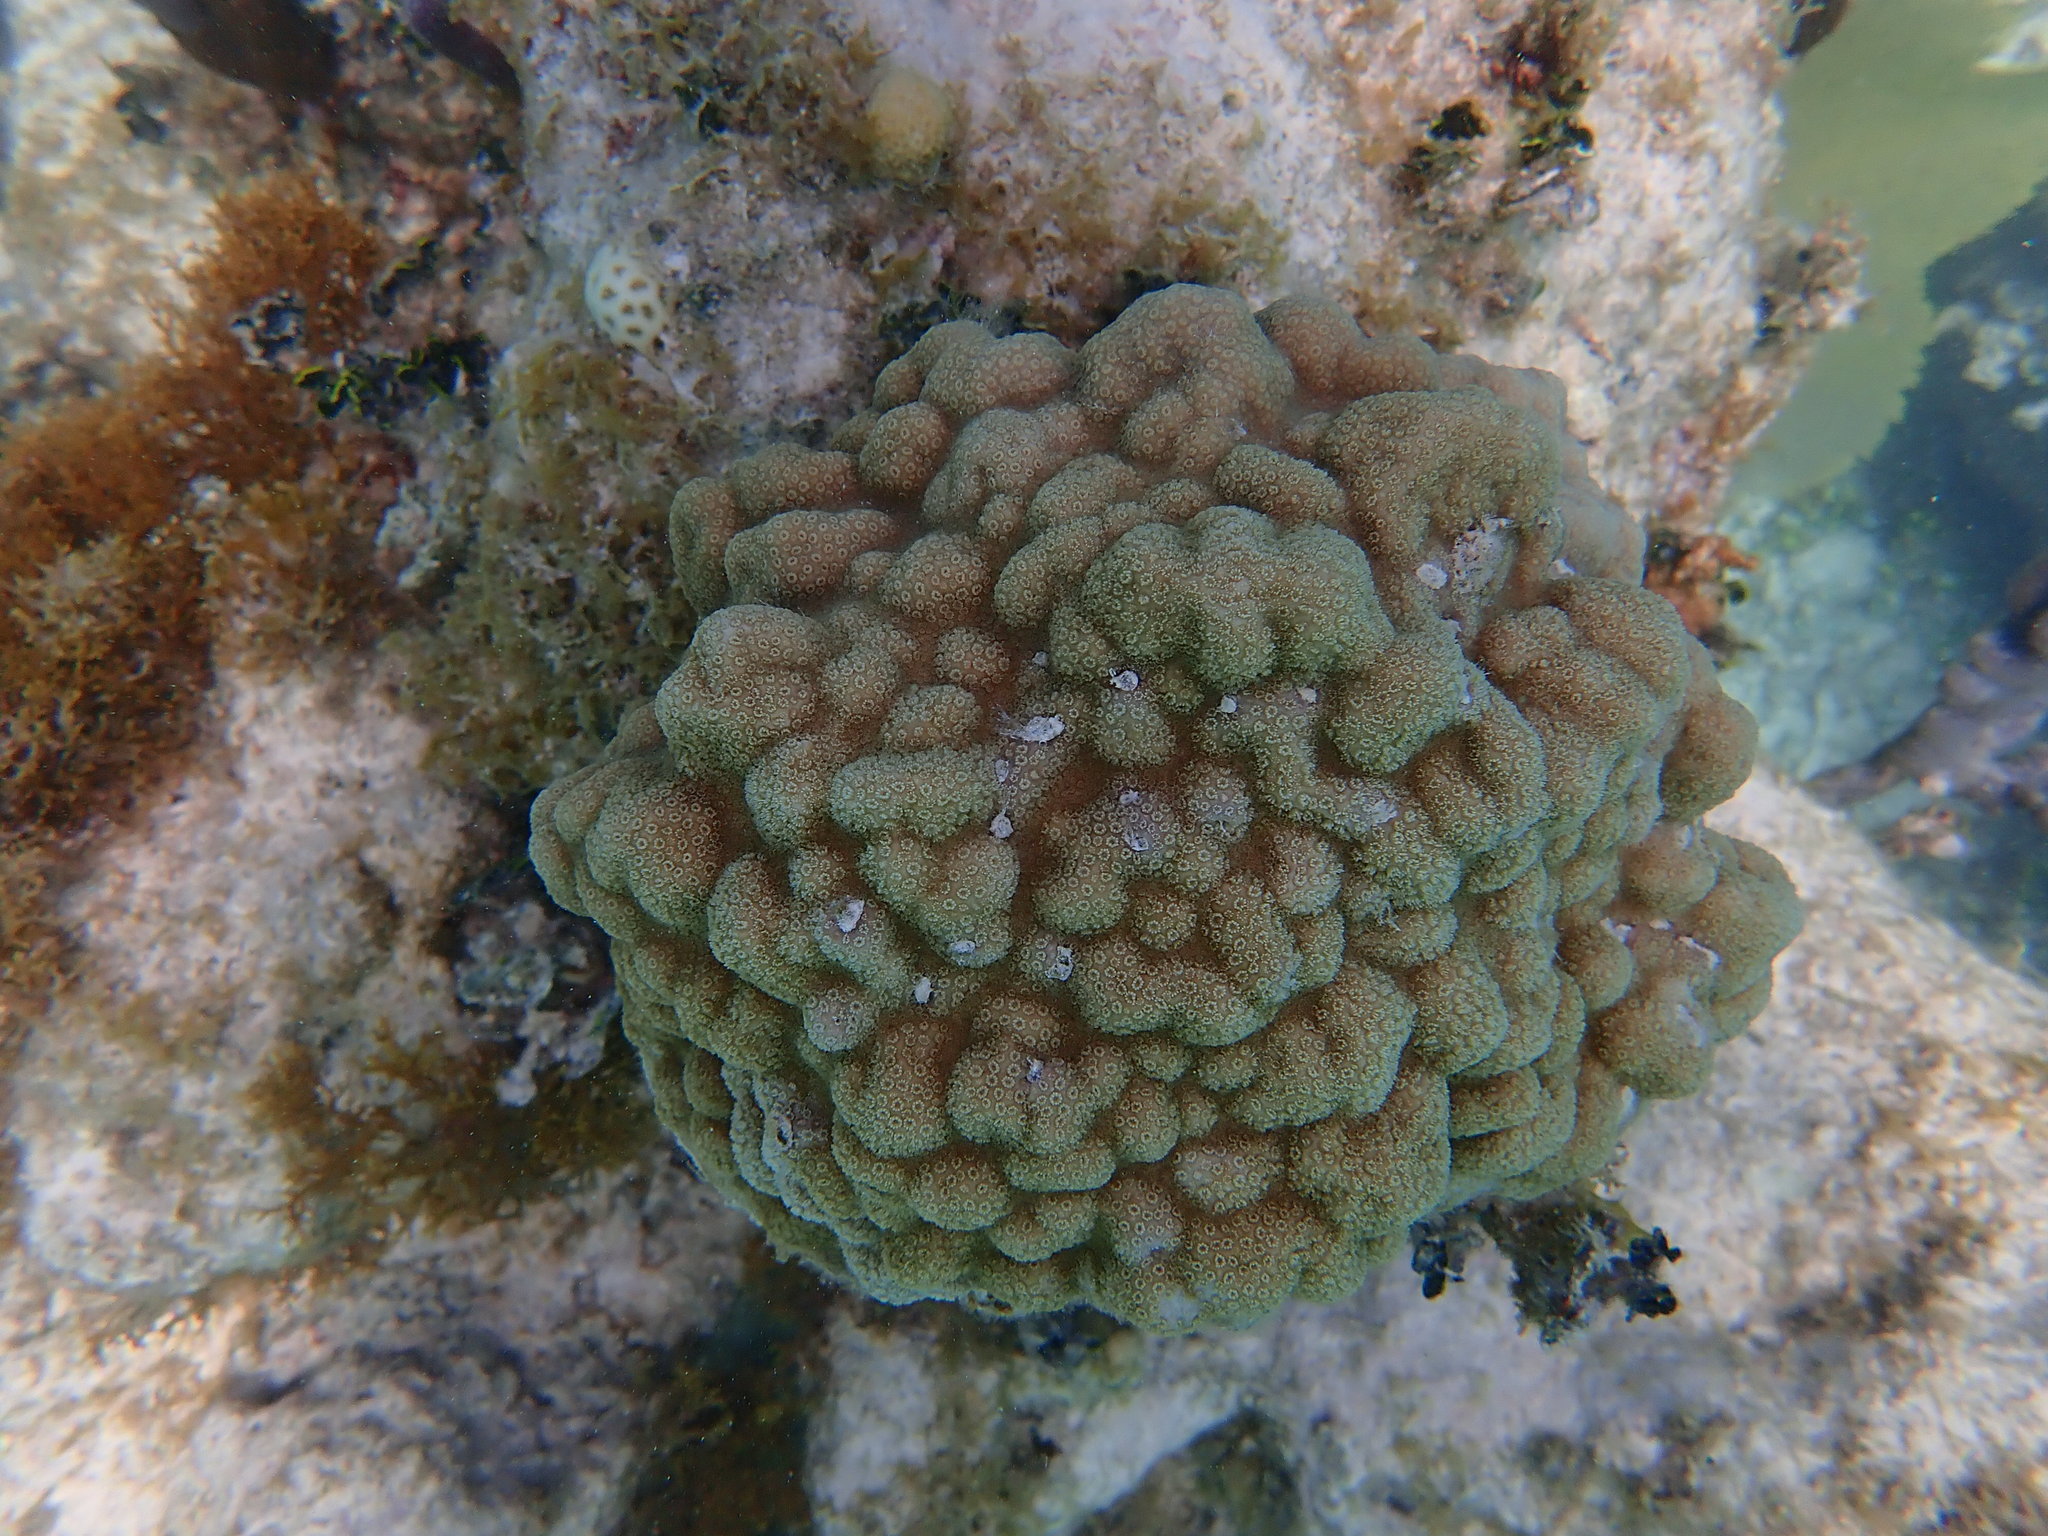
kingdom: Animalia
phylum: Cnidaria
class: Anthozoa
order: Scleractinia
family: Poritidae
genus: Porites
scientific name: Porites astreoides
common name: Mustard hill coral
